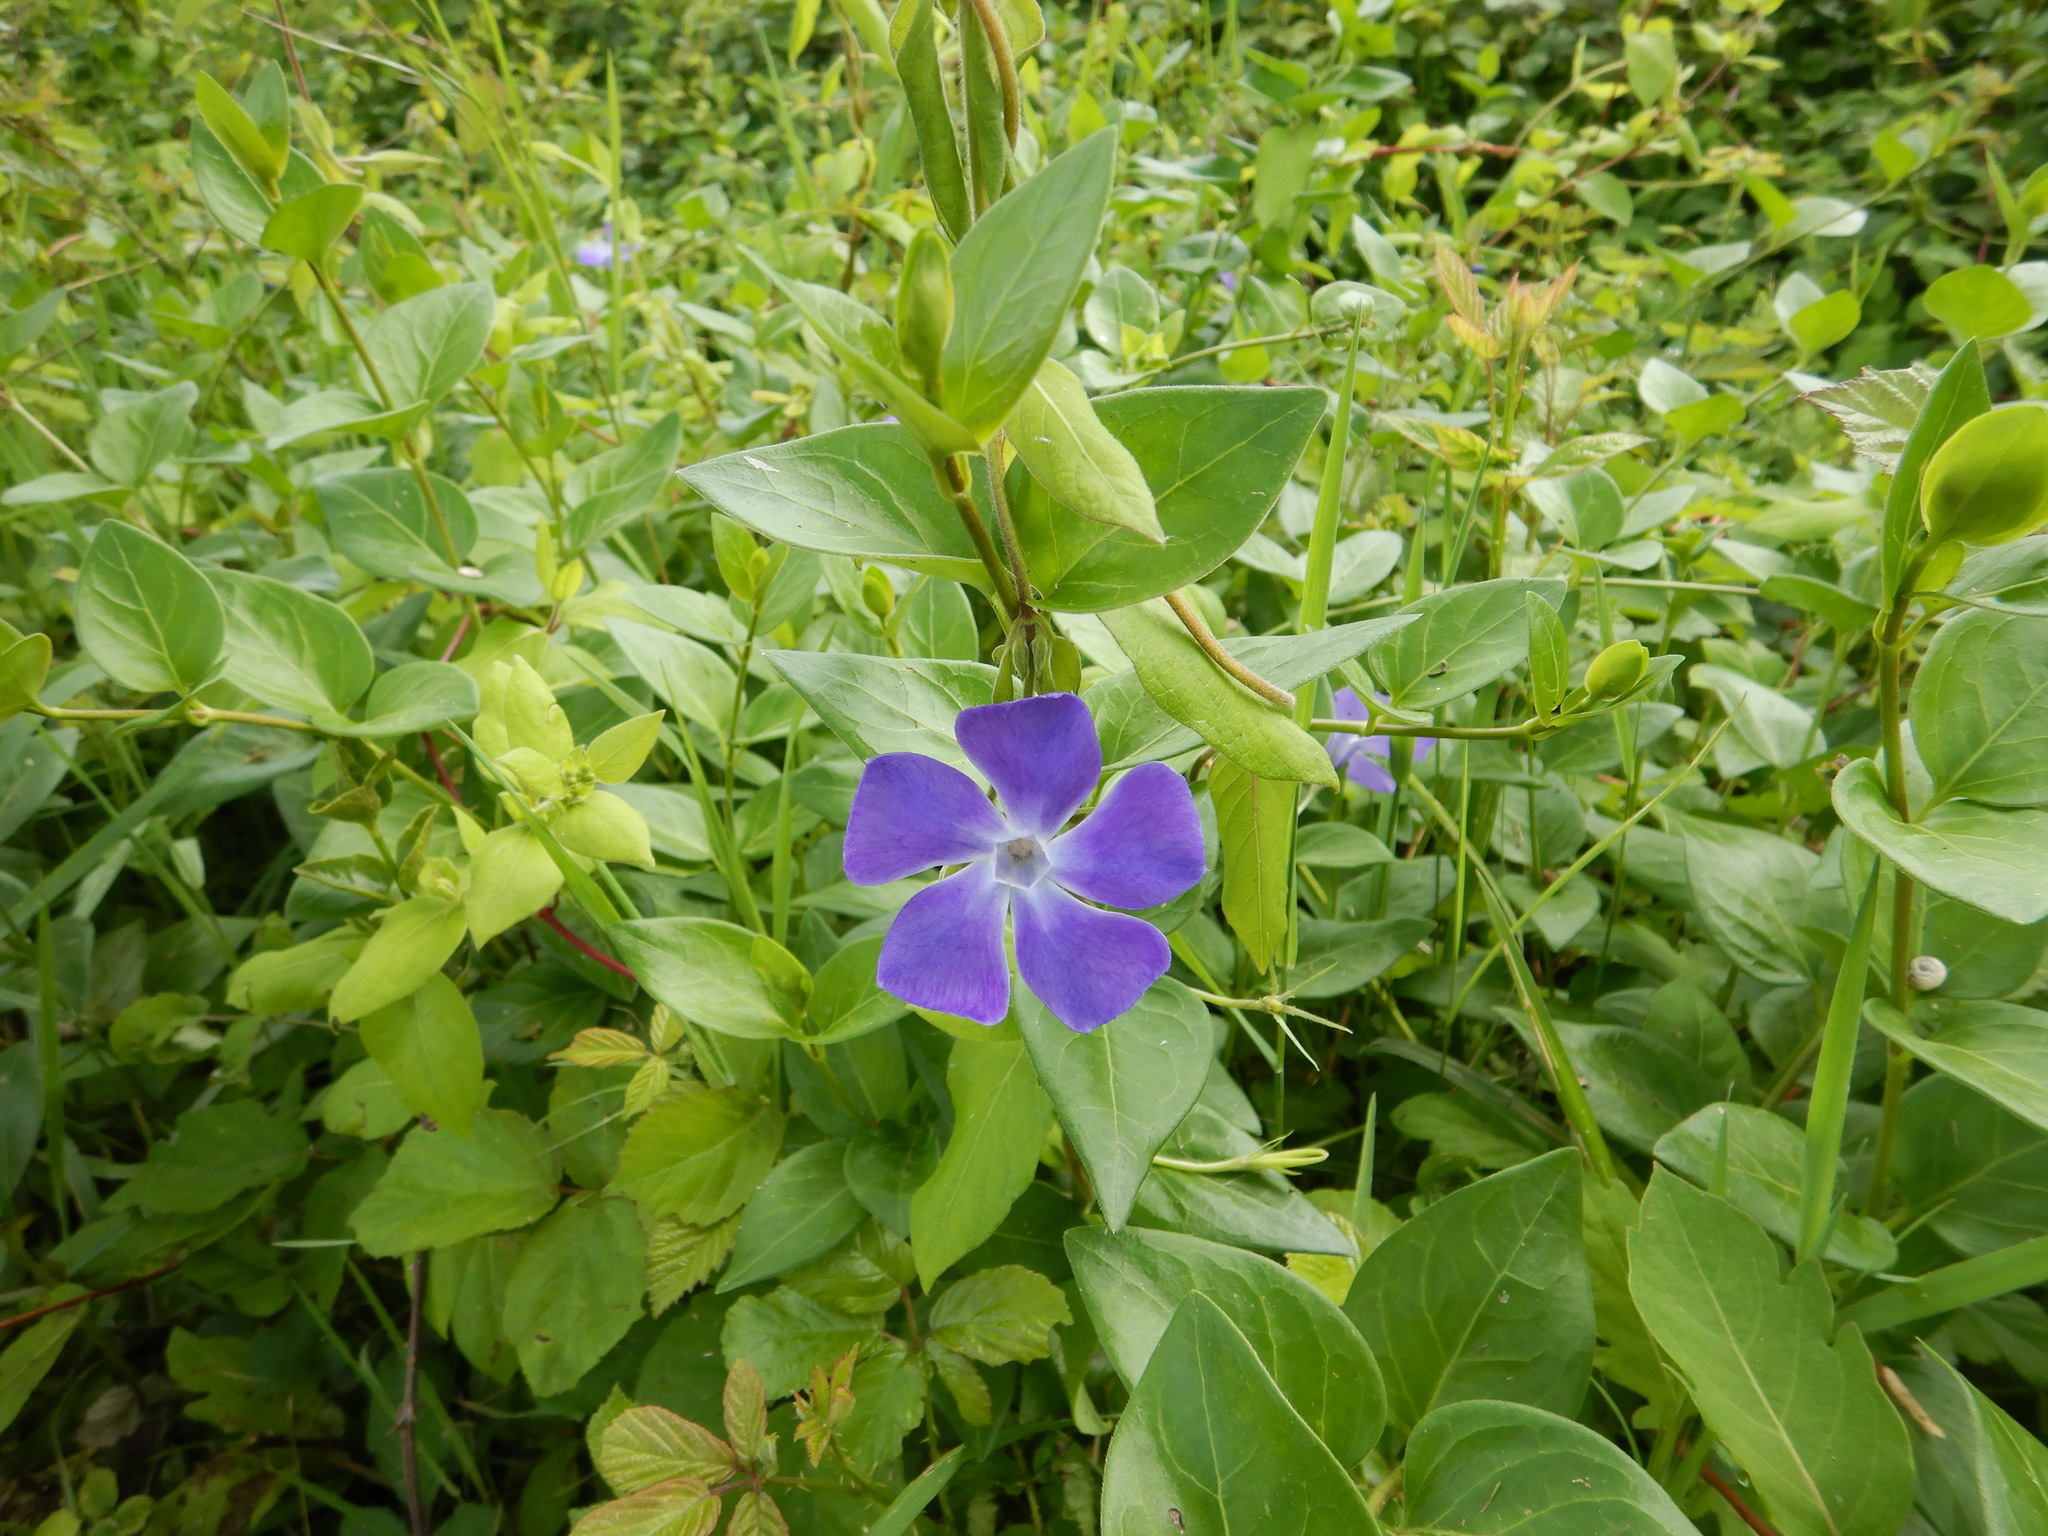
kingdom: Plantae
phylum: Tracheophyta
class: Magnoliopsida
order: Gentianales
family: Apocynaceae
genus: Vinca
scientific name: Vinca major
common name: Greater periwinkle
